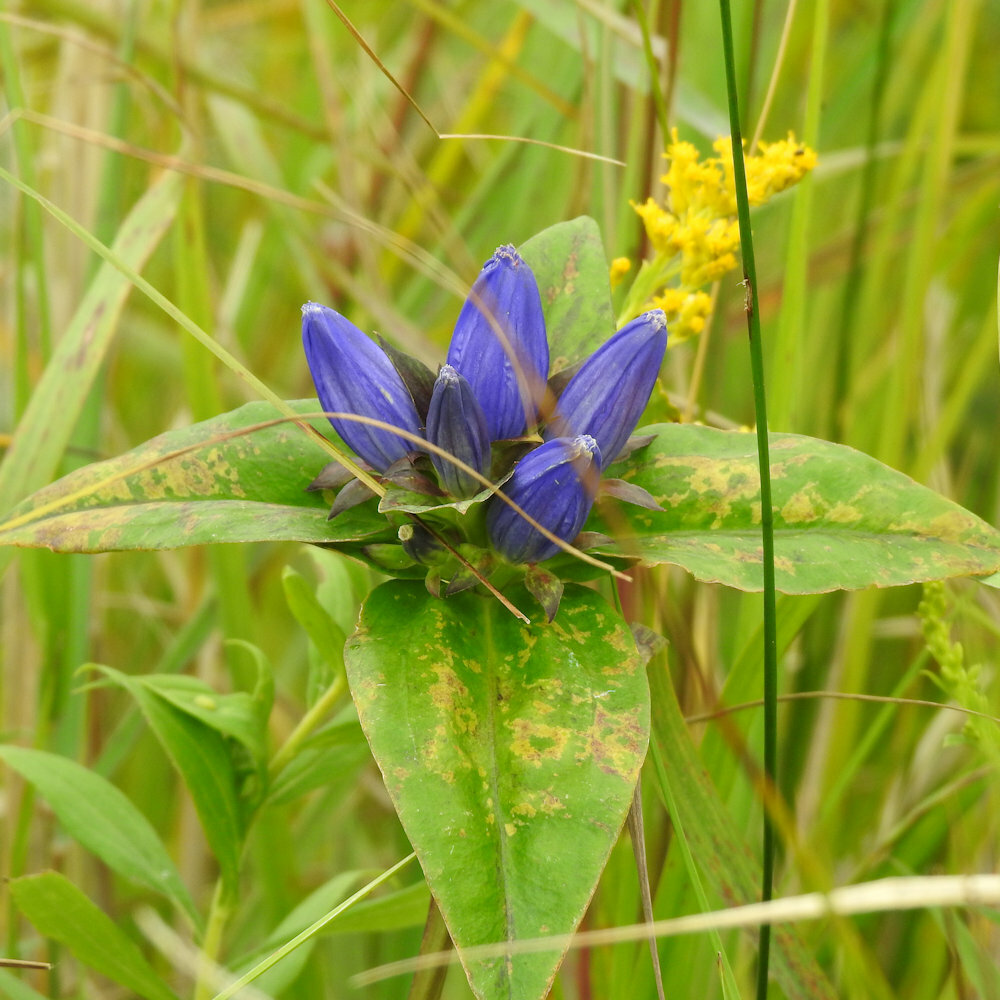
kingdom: Plantae
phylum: Tracheophyta
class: Magnoliopsida
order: Gentianales
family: Gentianaceae
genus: Gentiana
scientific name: Gentiana andrewsii
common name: Bottle gentian
